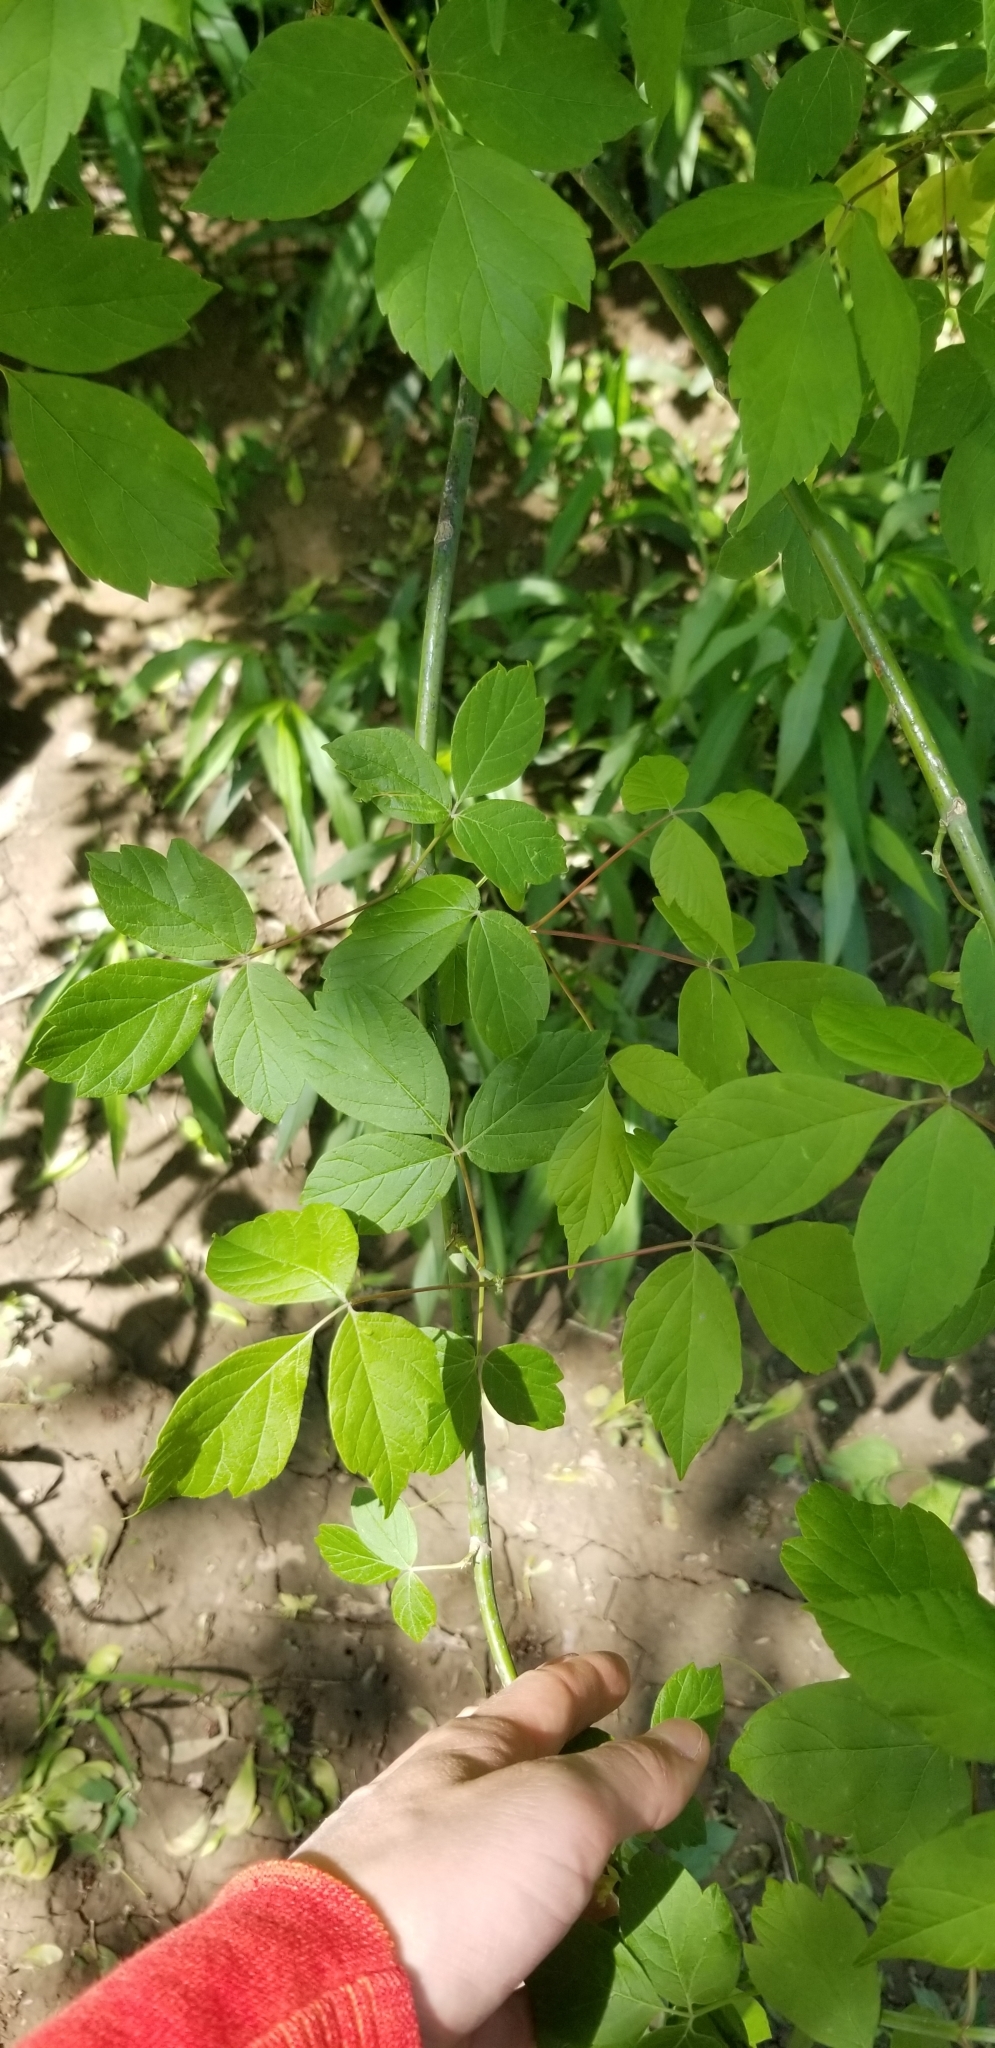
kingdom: Plantae
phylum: Tracheophyta
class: Magnoliopsida
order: Sapindales
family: Sapindaceae
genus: Acer
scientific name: Acer negundo
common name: Ashleaf maple
